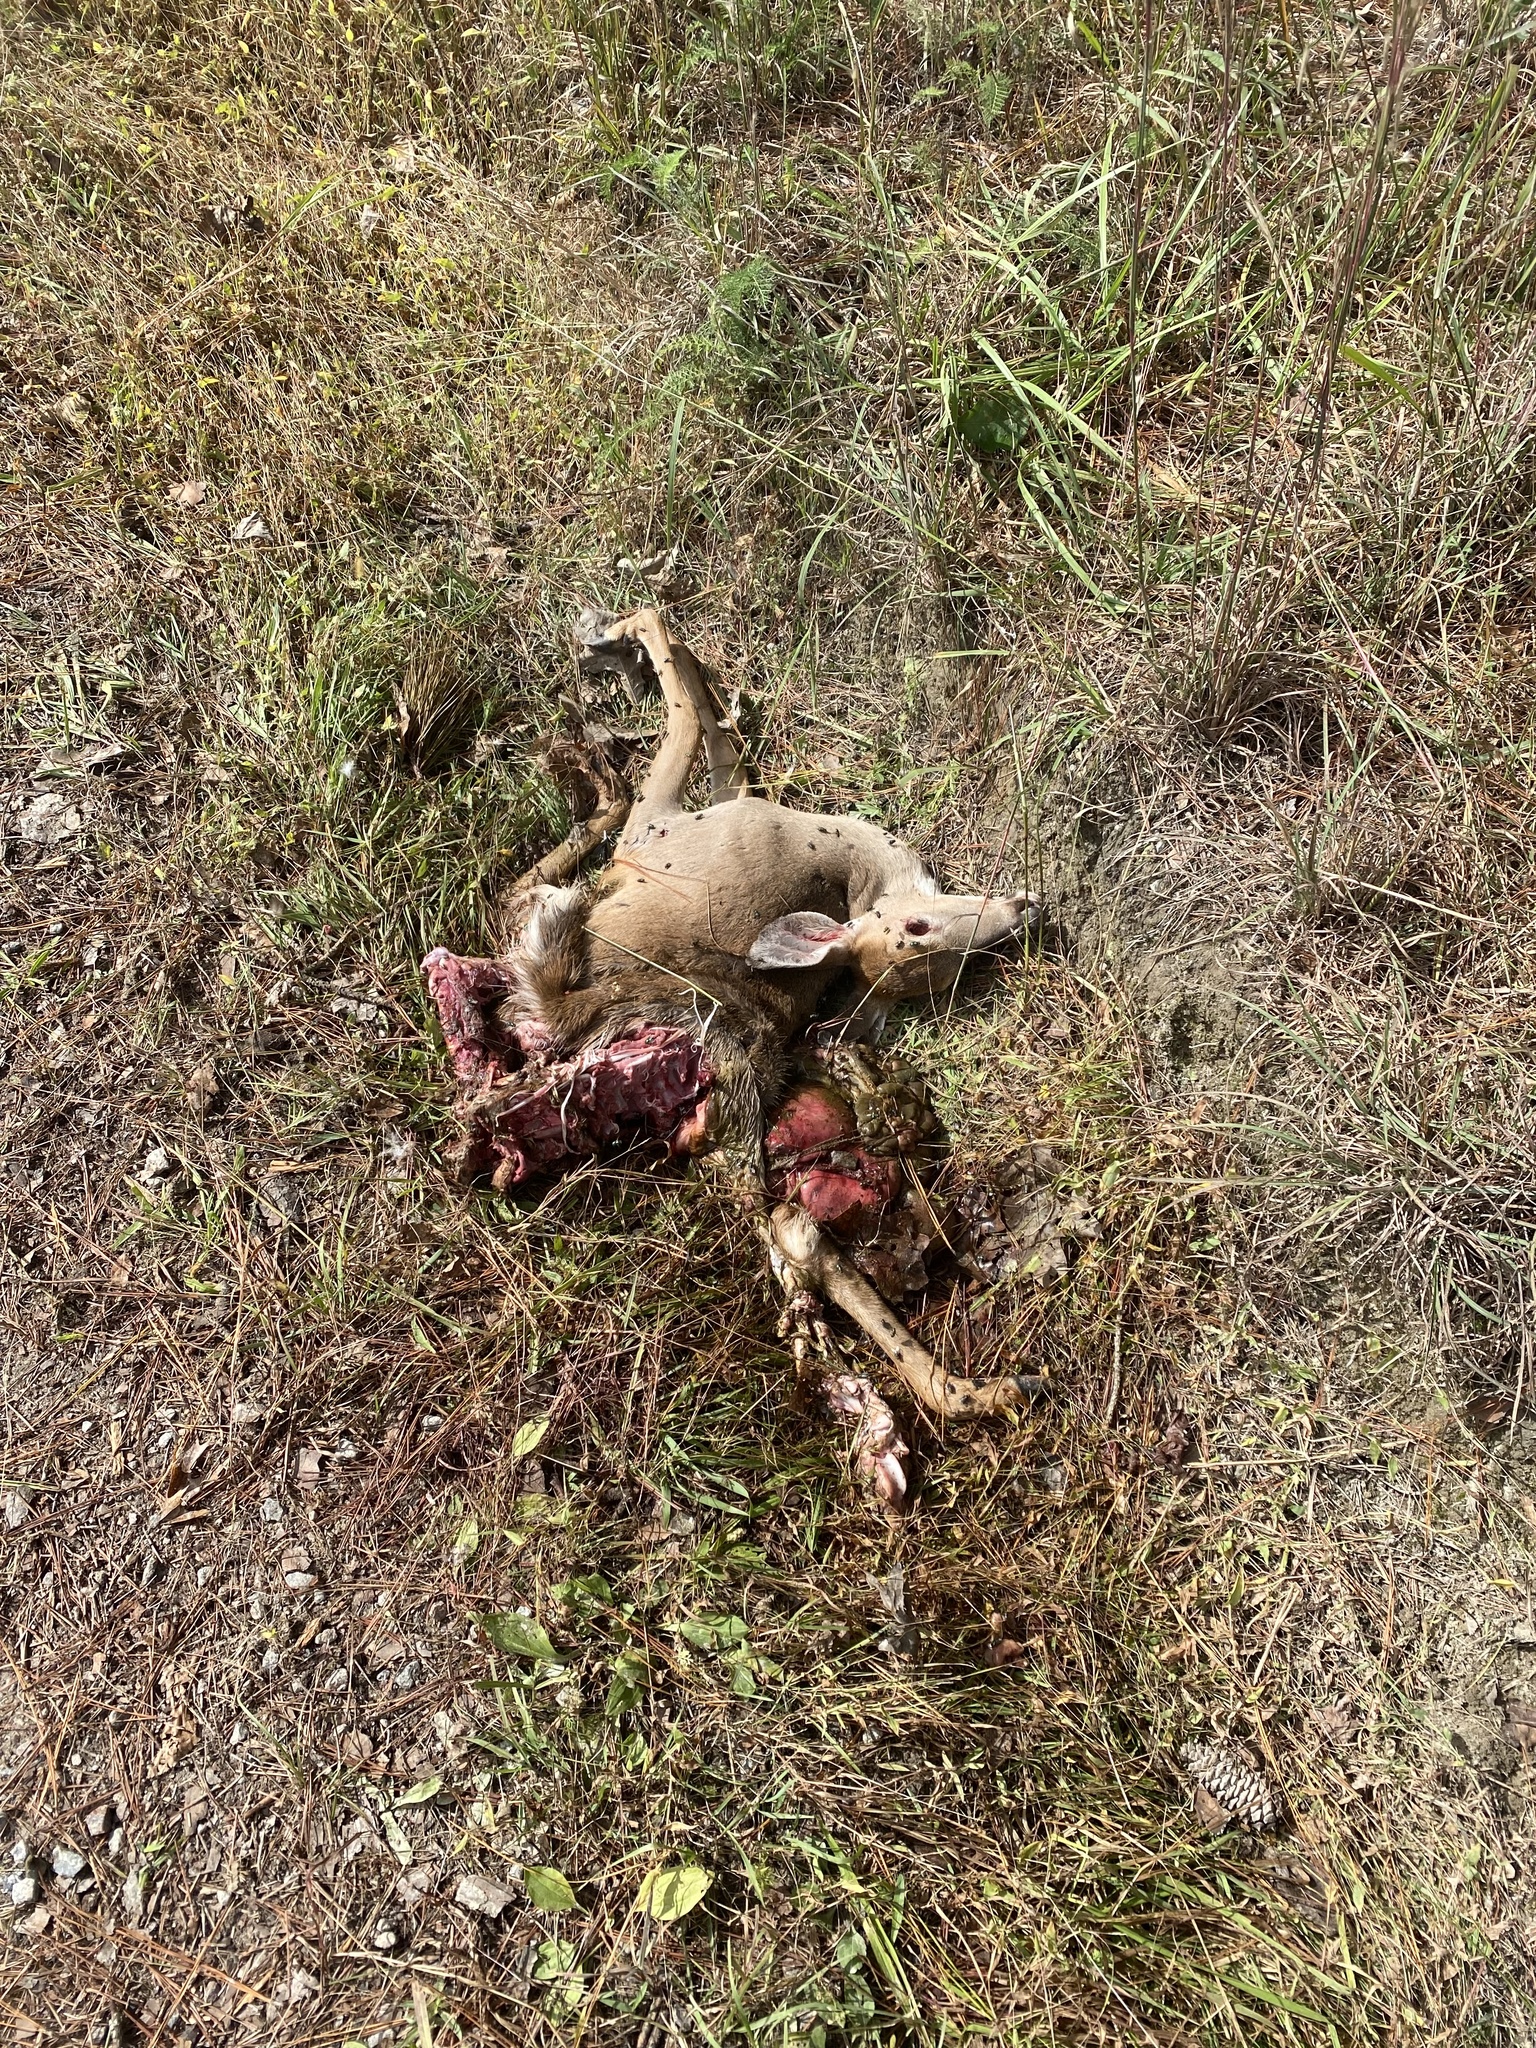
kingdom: Animalia
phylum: Chordata
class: Mammalia
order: Artiodactyla
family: Cervidae
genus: Odocoileus
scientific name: Odocoileus virginianus
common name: White-tailed deer
